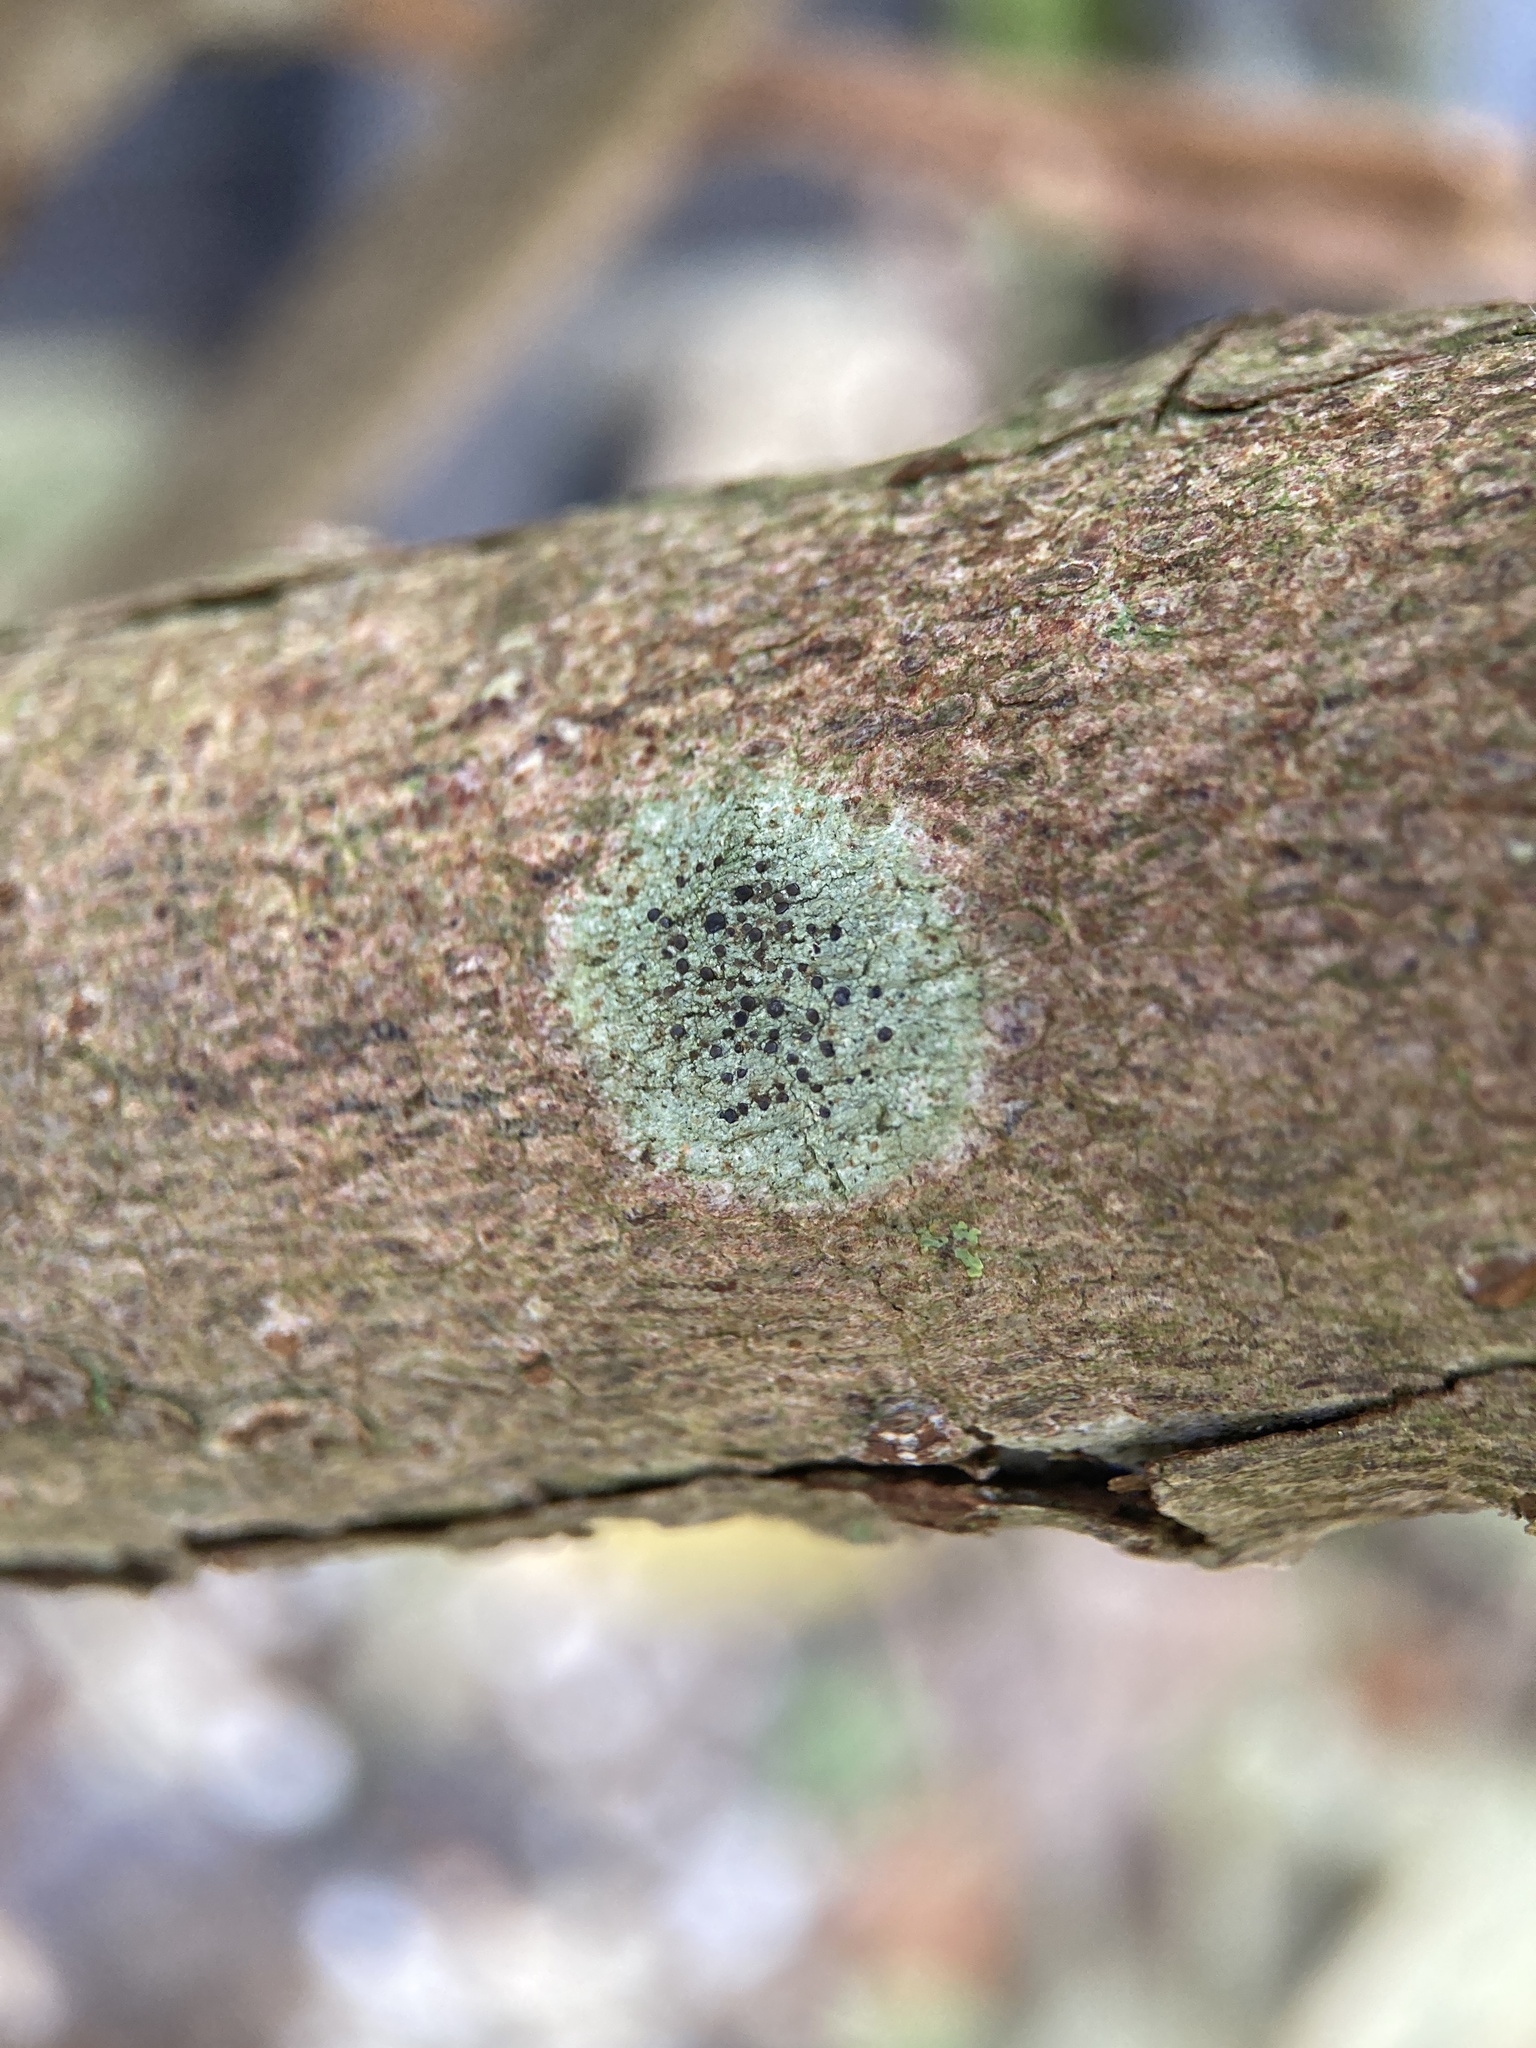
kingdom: Fungi
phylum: Ascomycota
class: Lecanoromycetes
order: Lecanorales
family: Lecanoraceae
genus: Lecidella
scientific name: Lecidella elaeochroma
